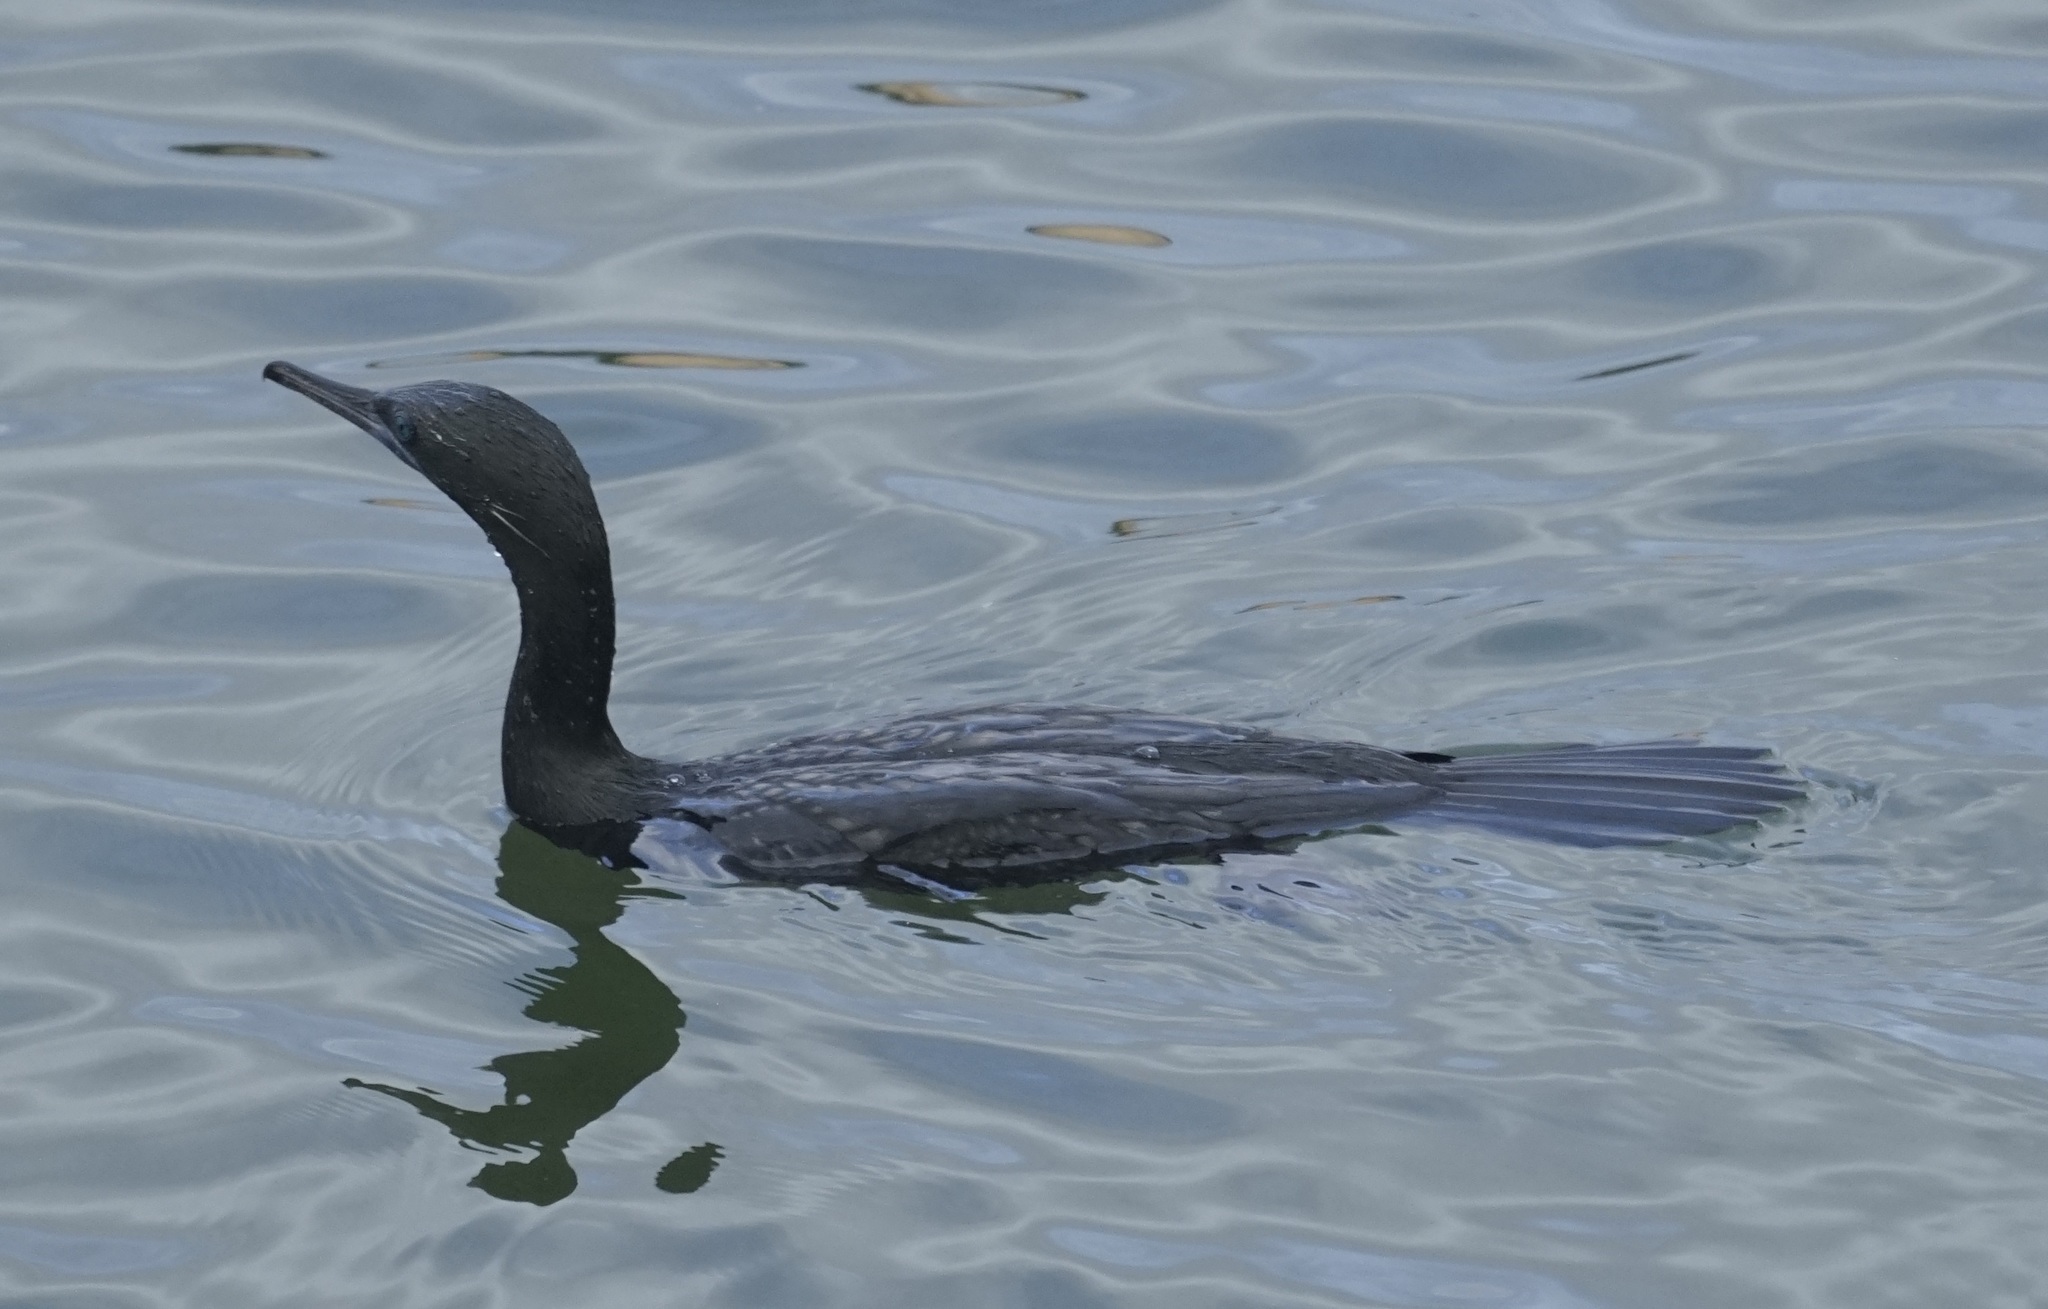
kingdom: Animalia
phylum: Chordata
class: Aves
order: Suliformes
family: Phalacrocoracidae
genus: Phalacrocorax
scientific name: Phalacrocorax sulcirostris
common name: Little black cormorant
